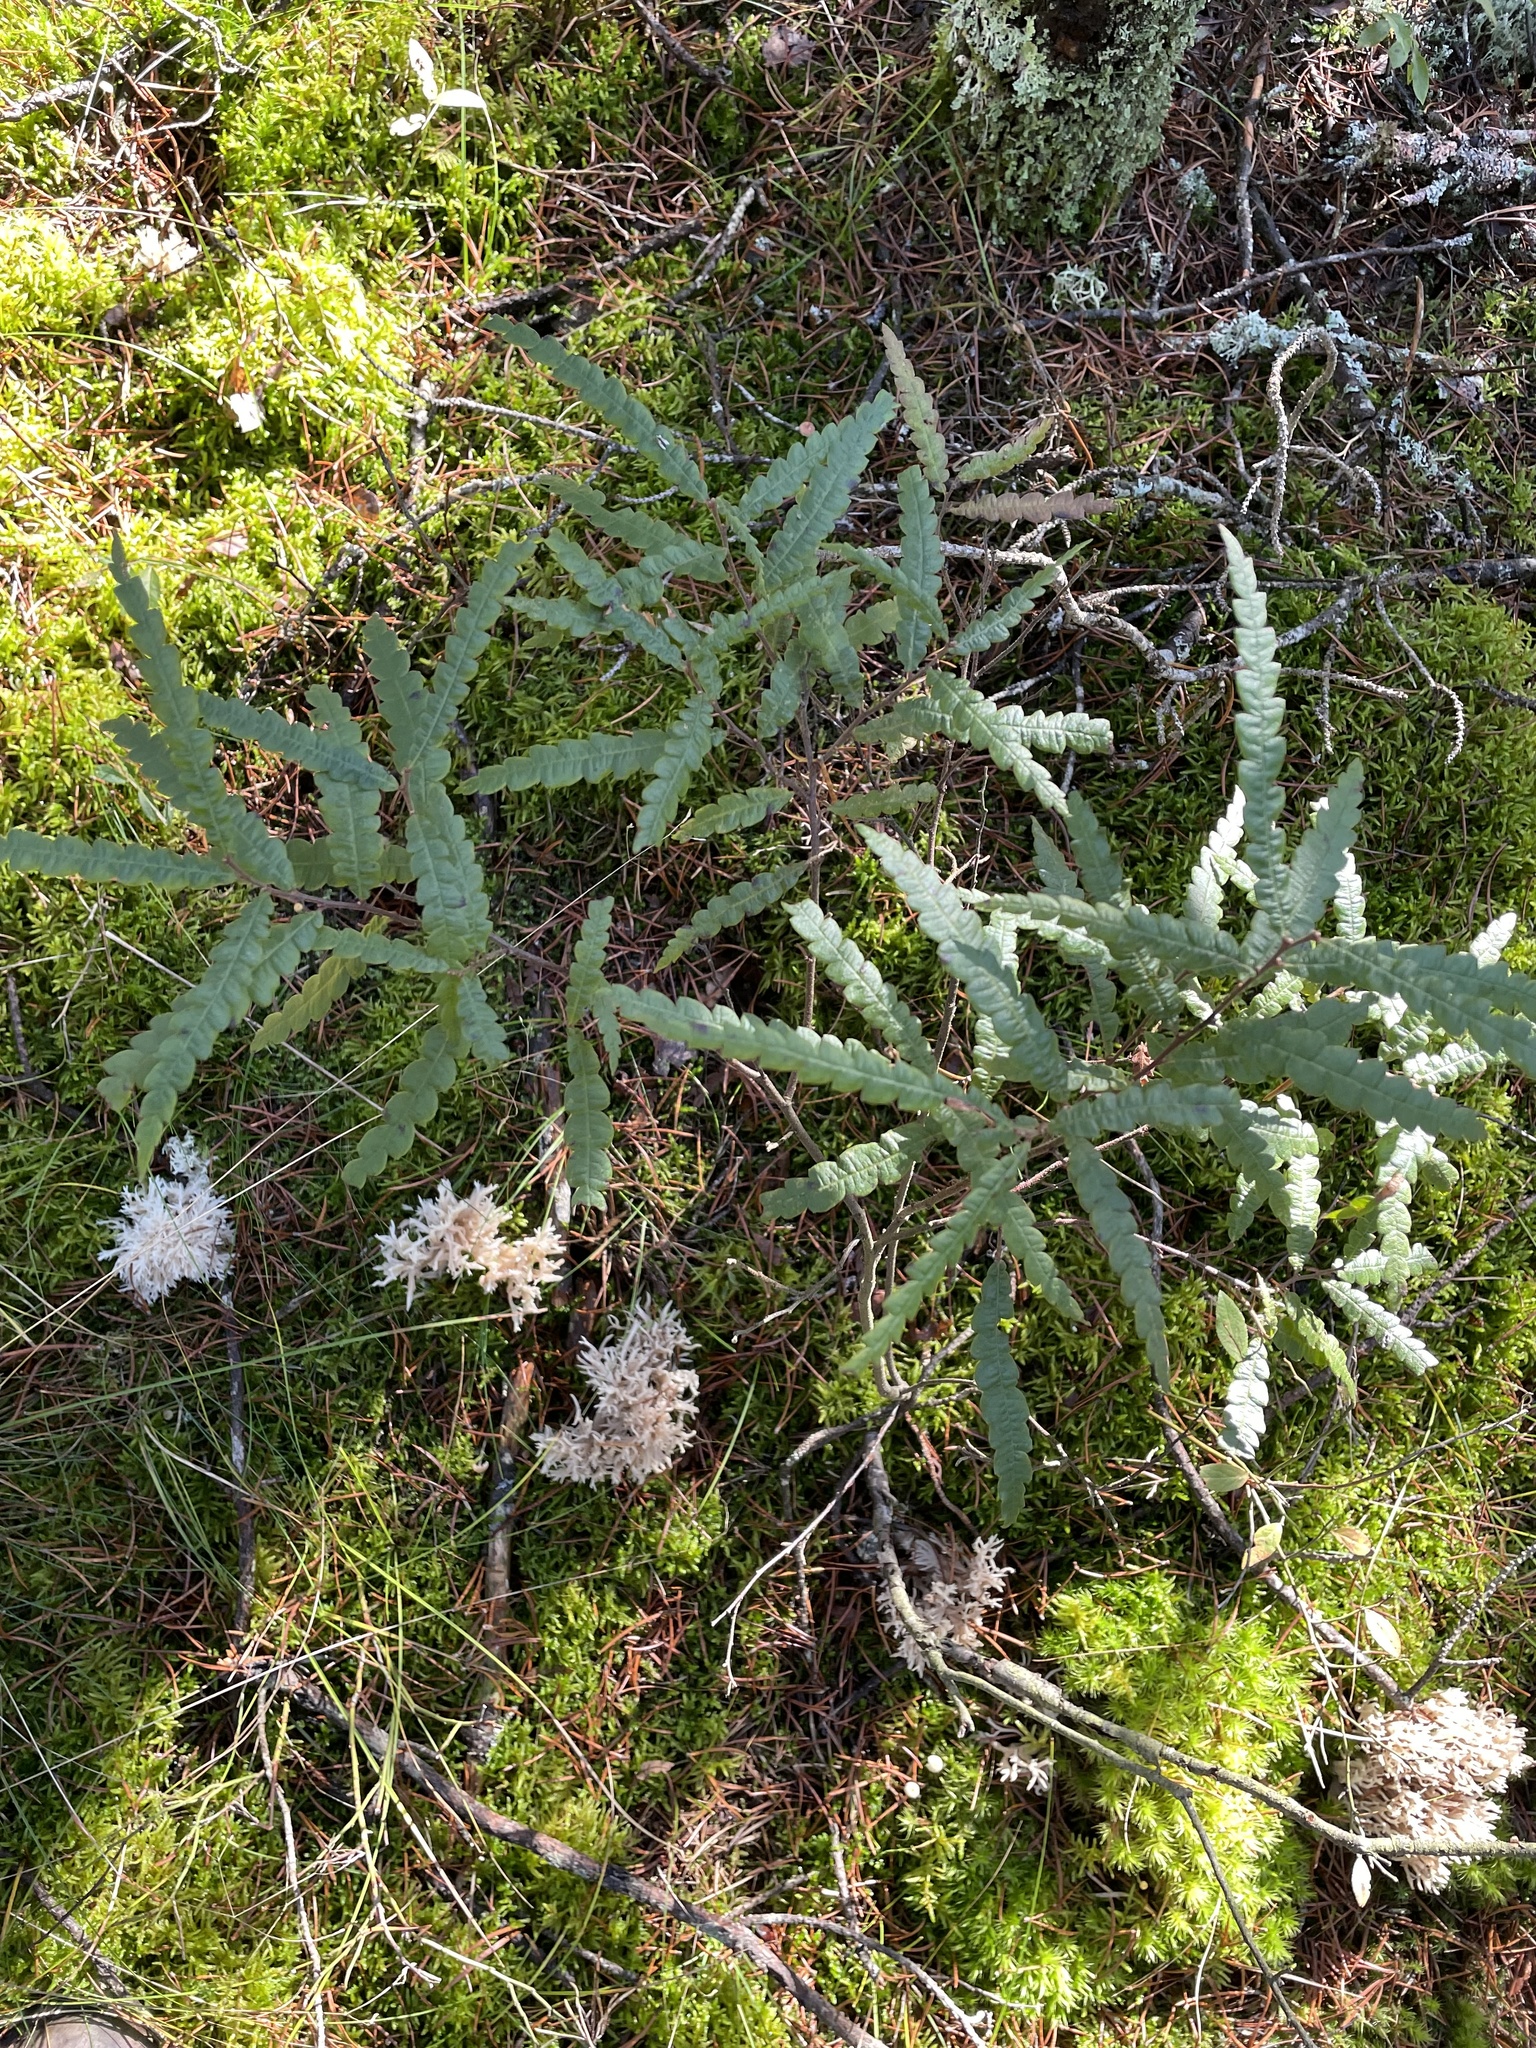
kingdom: Plantae
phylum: Tracheophyta
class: Magnoliopsida
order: Fagales
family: Myricaceae
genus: Comptonia
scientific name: Comptonia peregrina
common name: Sweet-fern
